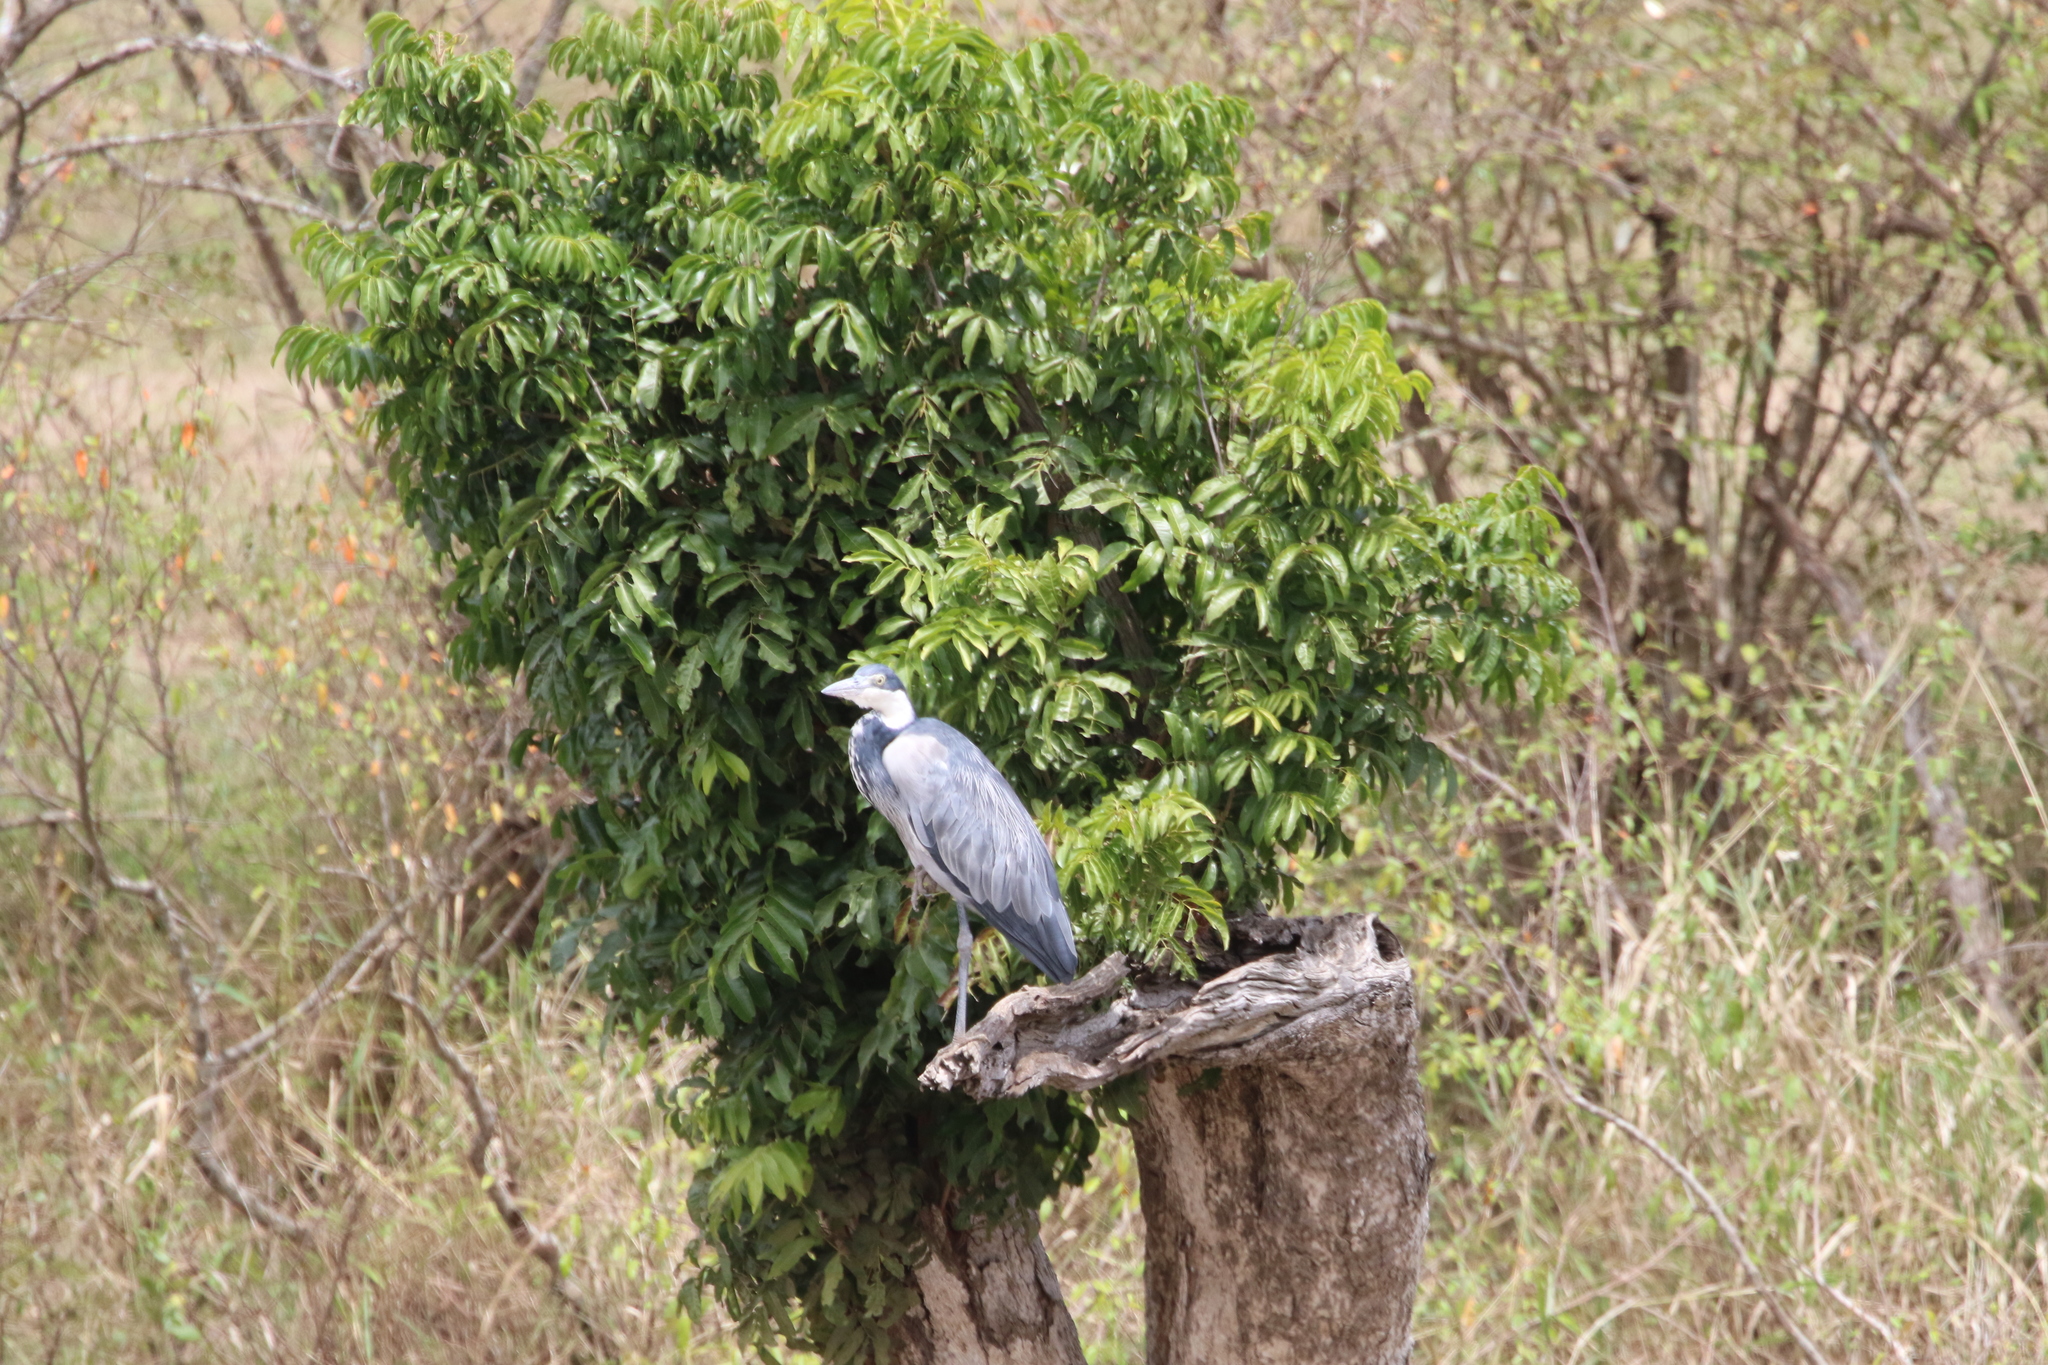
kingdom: Animalia
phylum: Chordata
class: Aves
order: Pelecaniformes
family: Ardeidae
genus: Ardea
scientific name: Ardea melanocephala
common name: Black-headed heron
